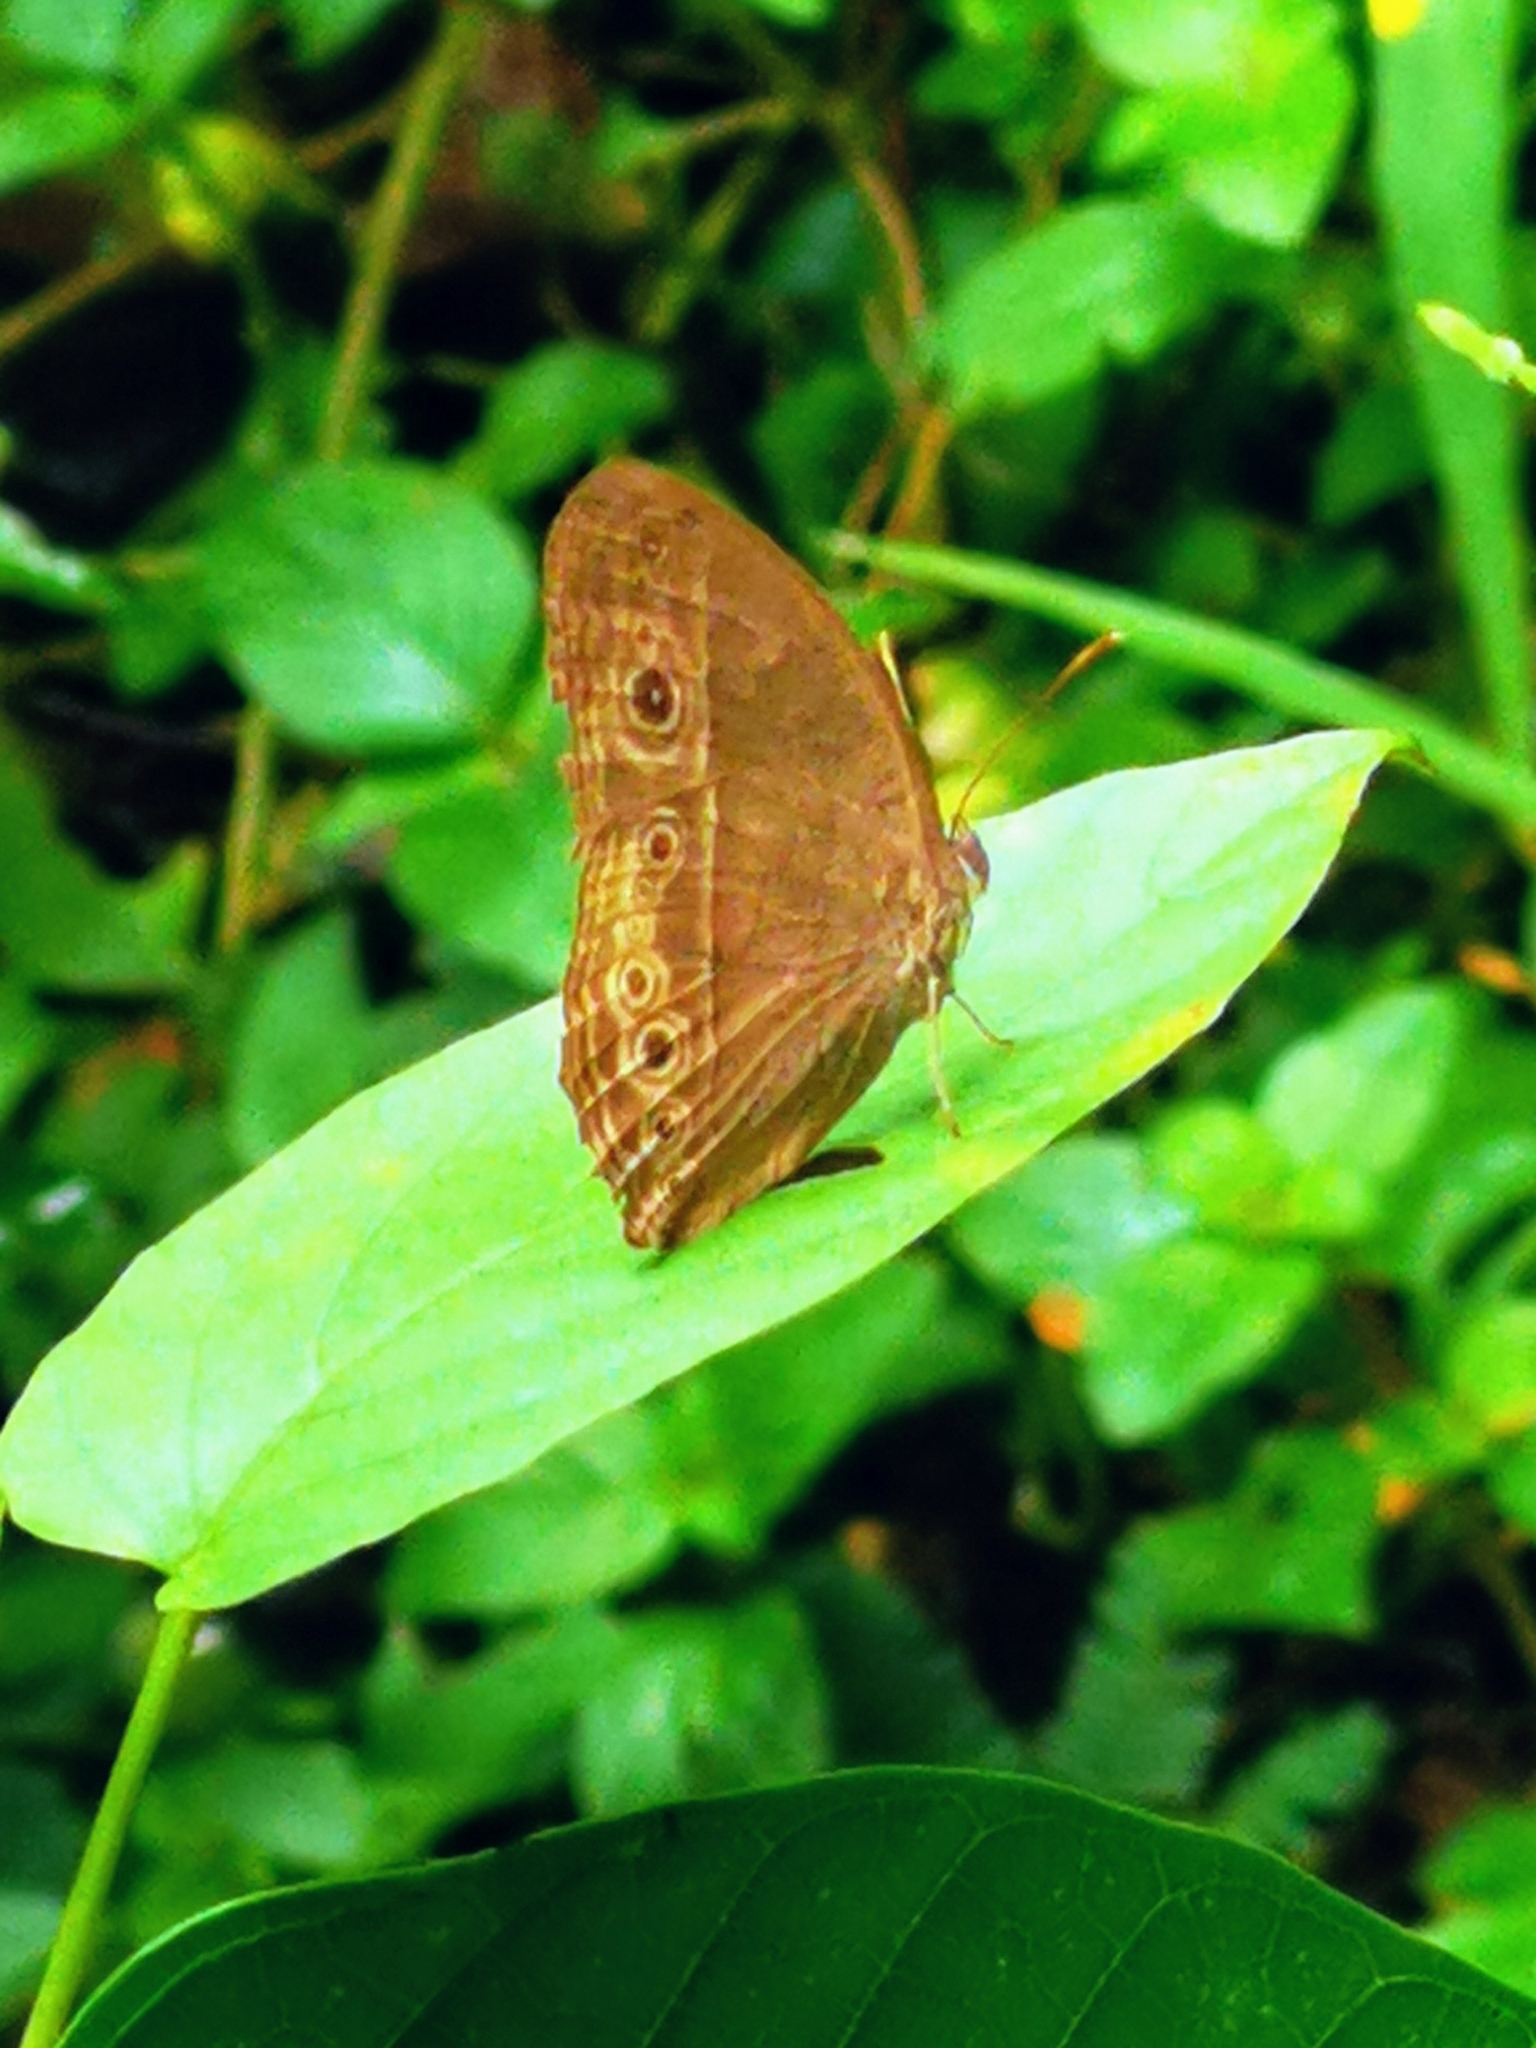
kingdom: Animalia
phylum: Arthropoda
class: Insecta
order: Lepidoptera
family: Nymphalidae
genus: Mycalesis
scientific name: Mycalesis perseus
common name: Dingy bushbrown
